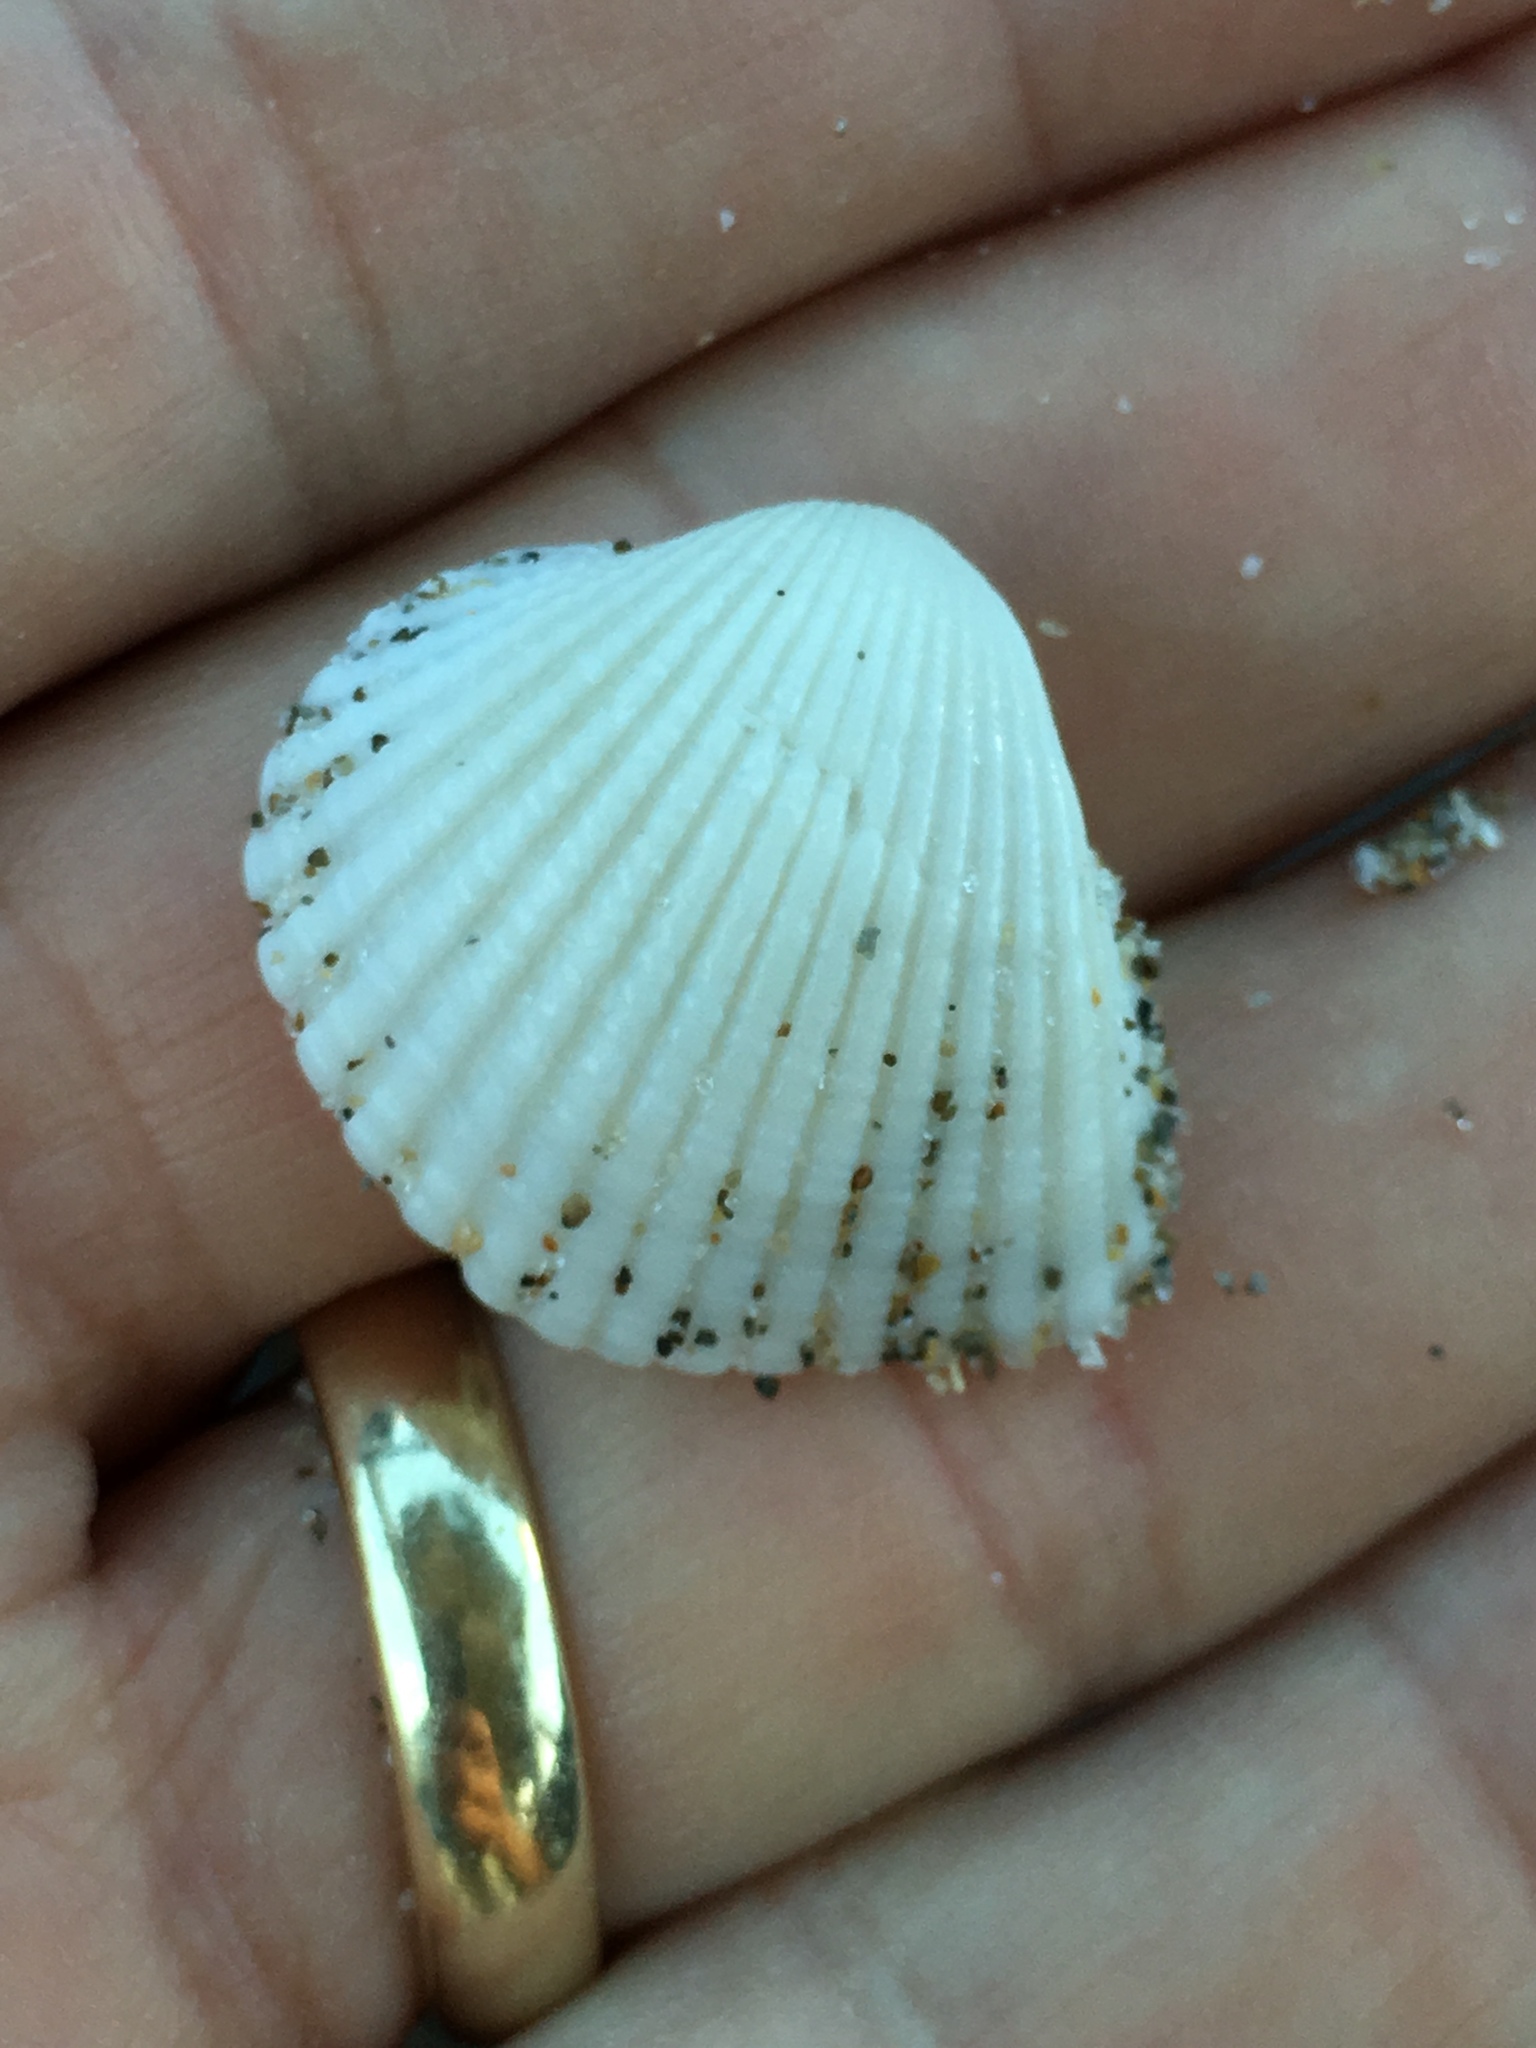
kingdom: Animalia
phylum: Mollusca
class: Bivalvia
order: Arcida
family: Arcidae
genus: Anadara
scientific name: Anadara brasiliana
